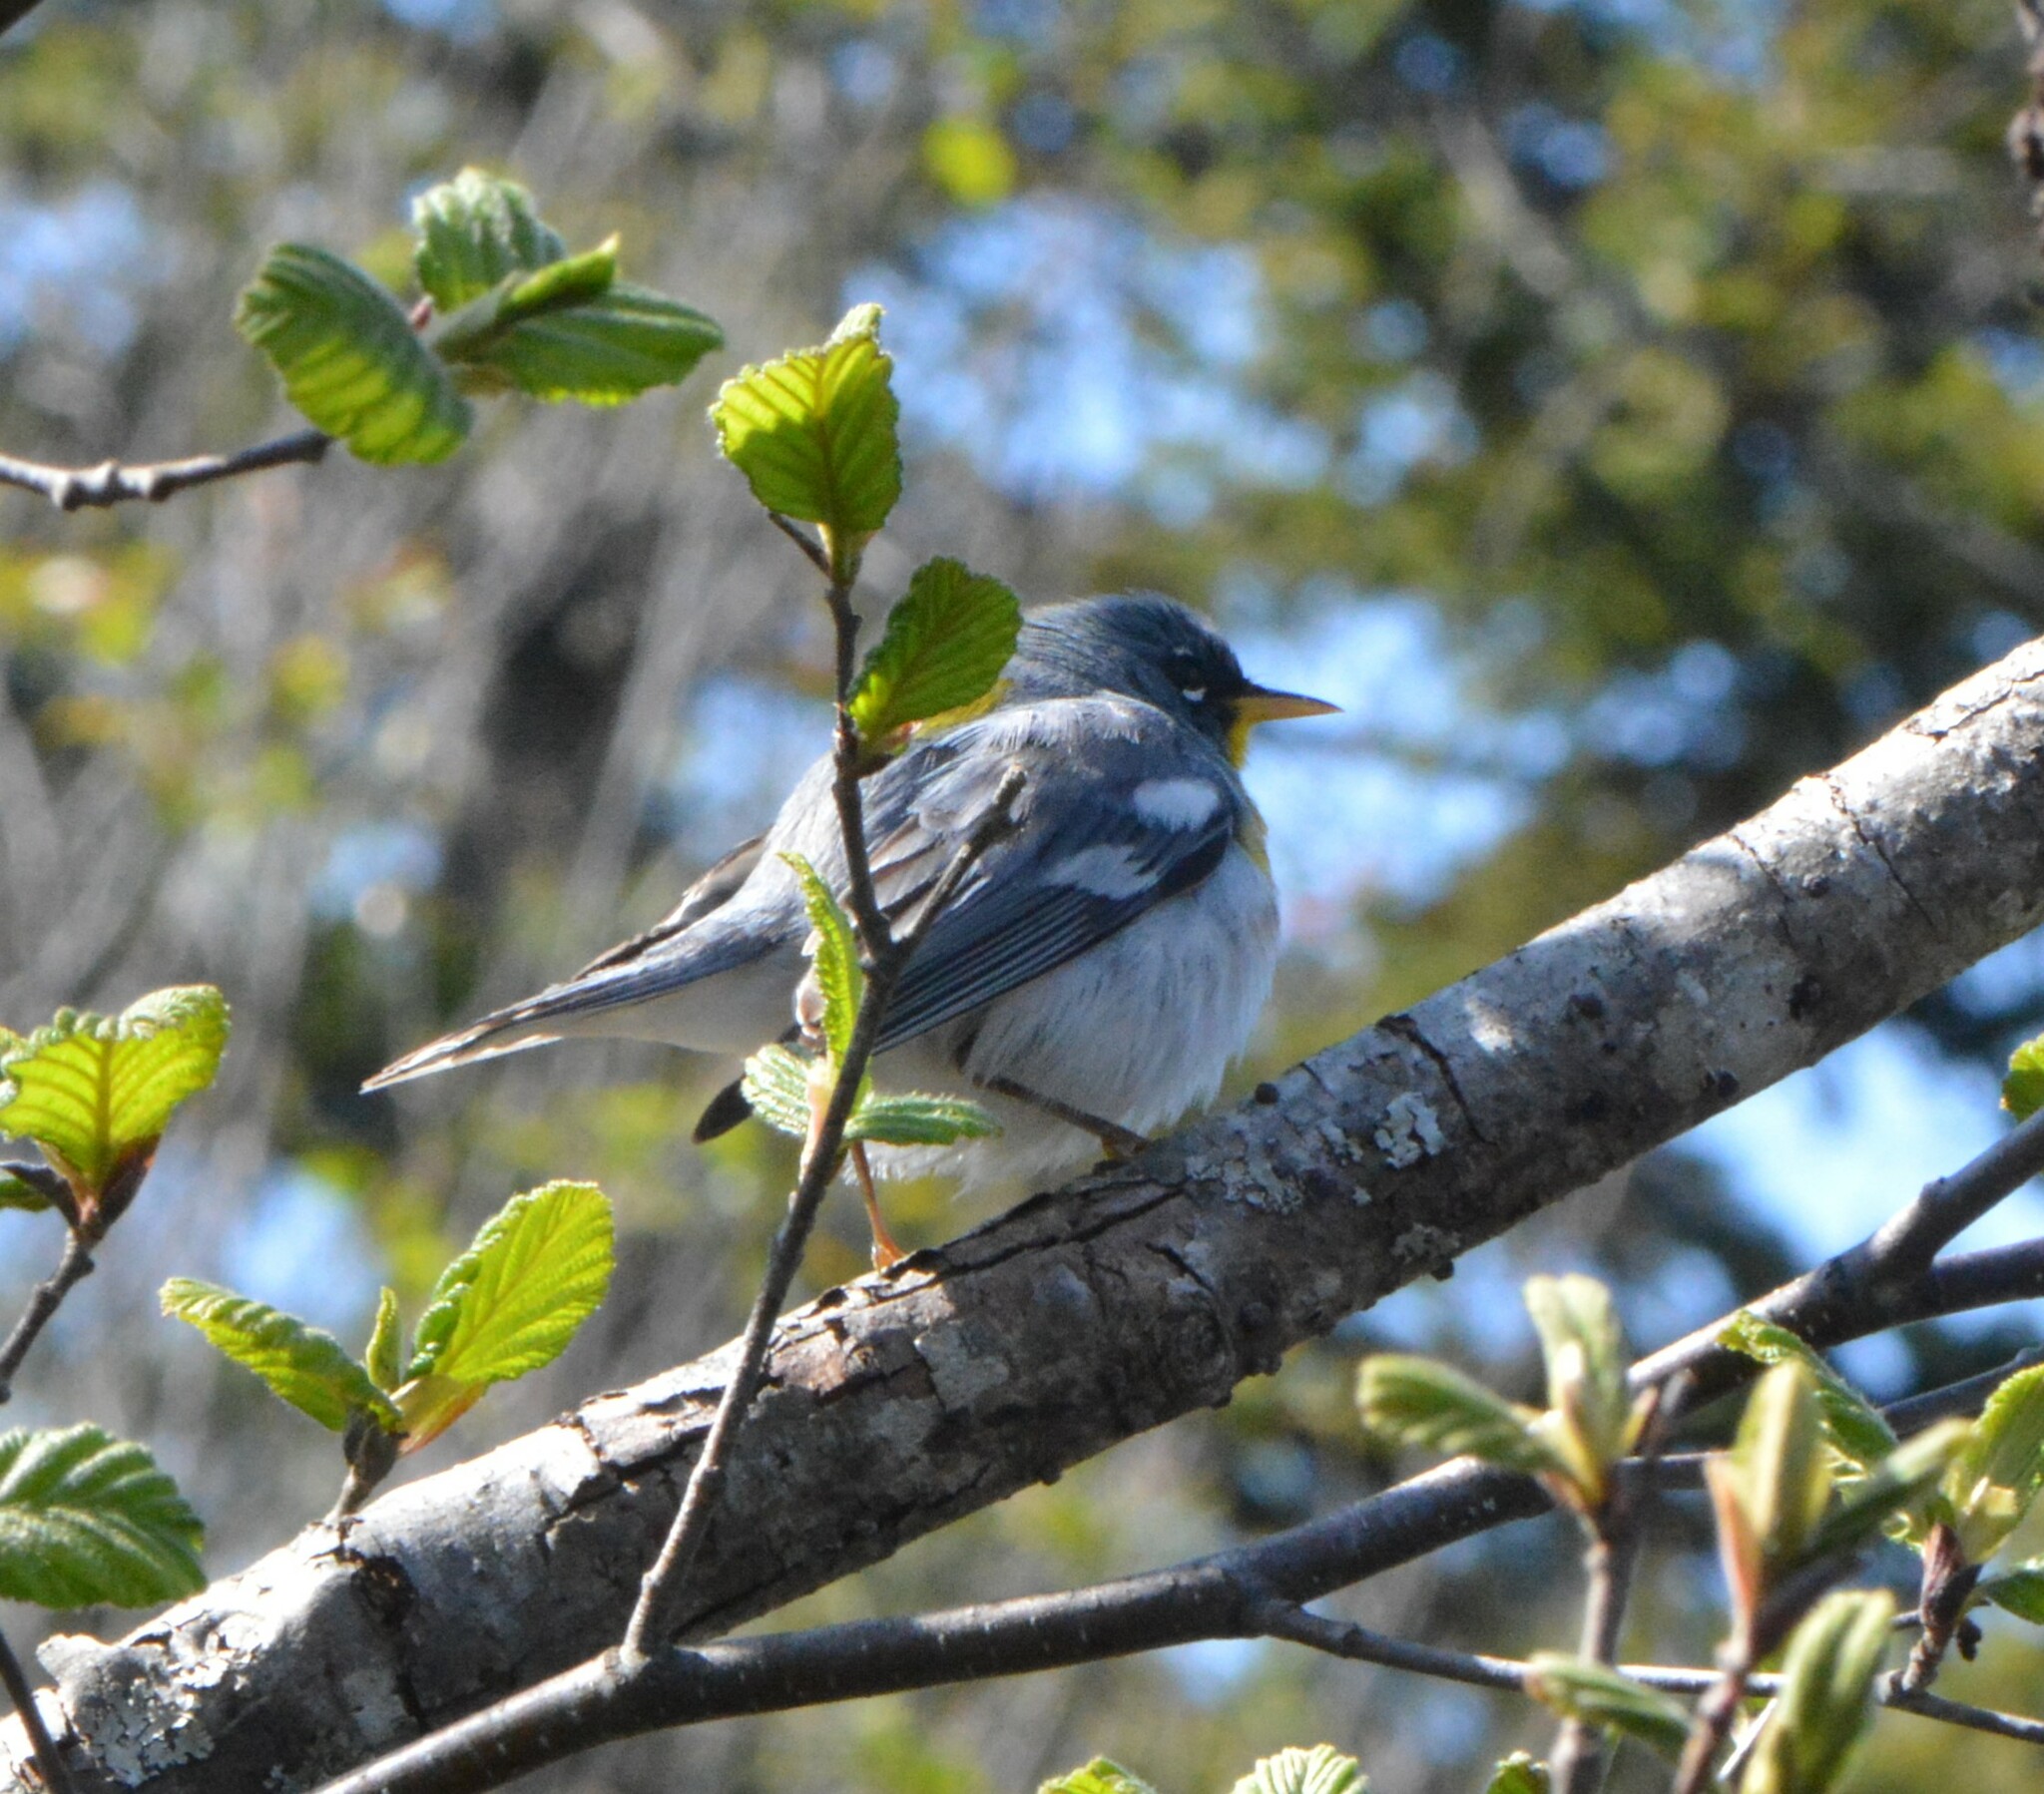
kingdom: Animalia
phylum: Chordata
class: Aves
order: Passeriformes
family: Parulidae
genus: Setophaga
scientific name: Setophaga americana
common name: Northern parula
